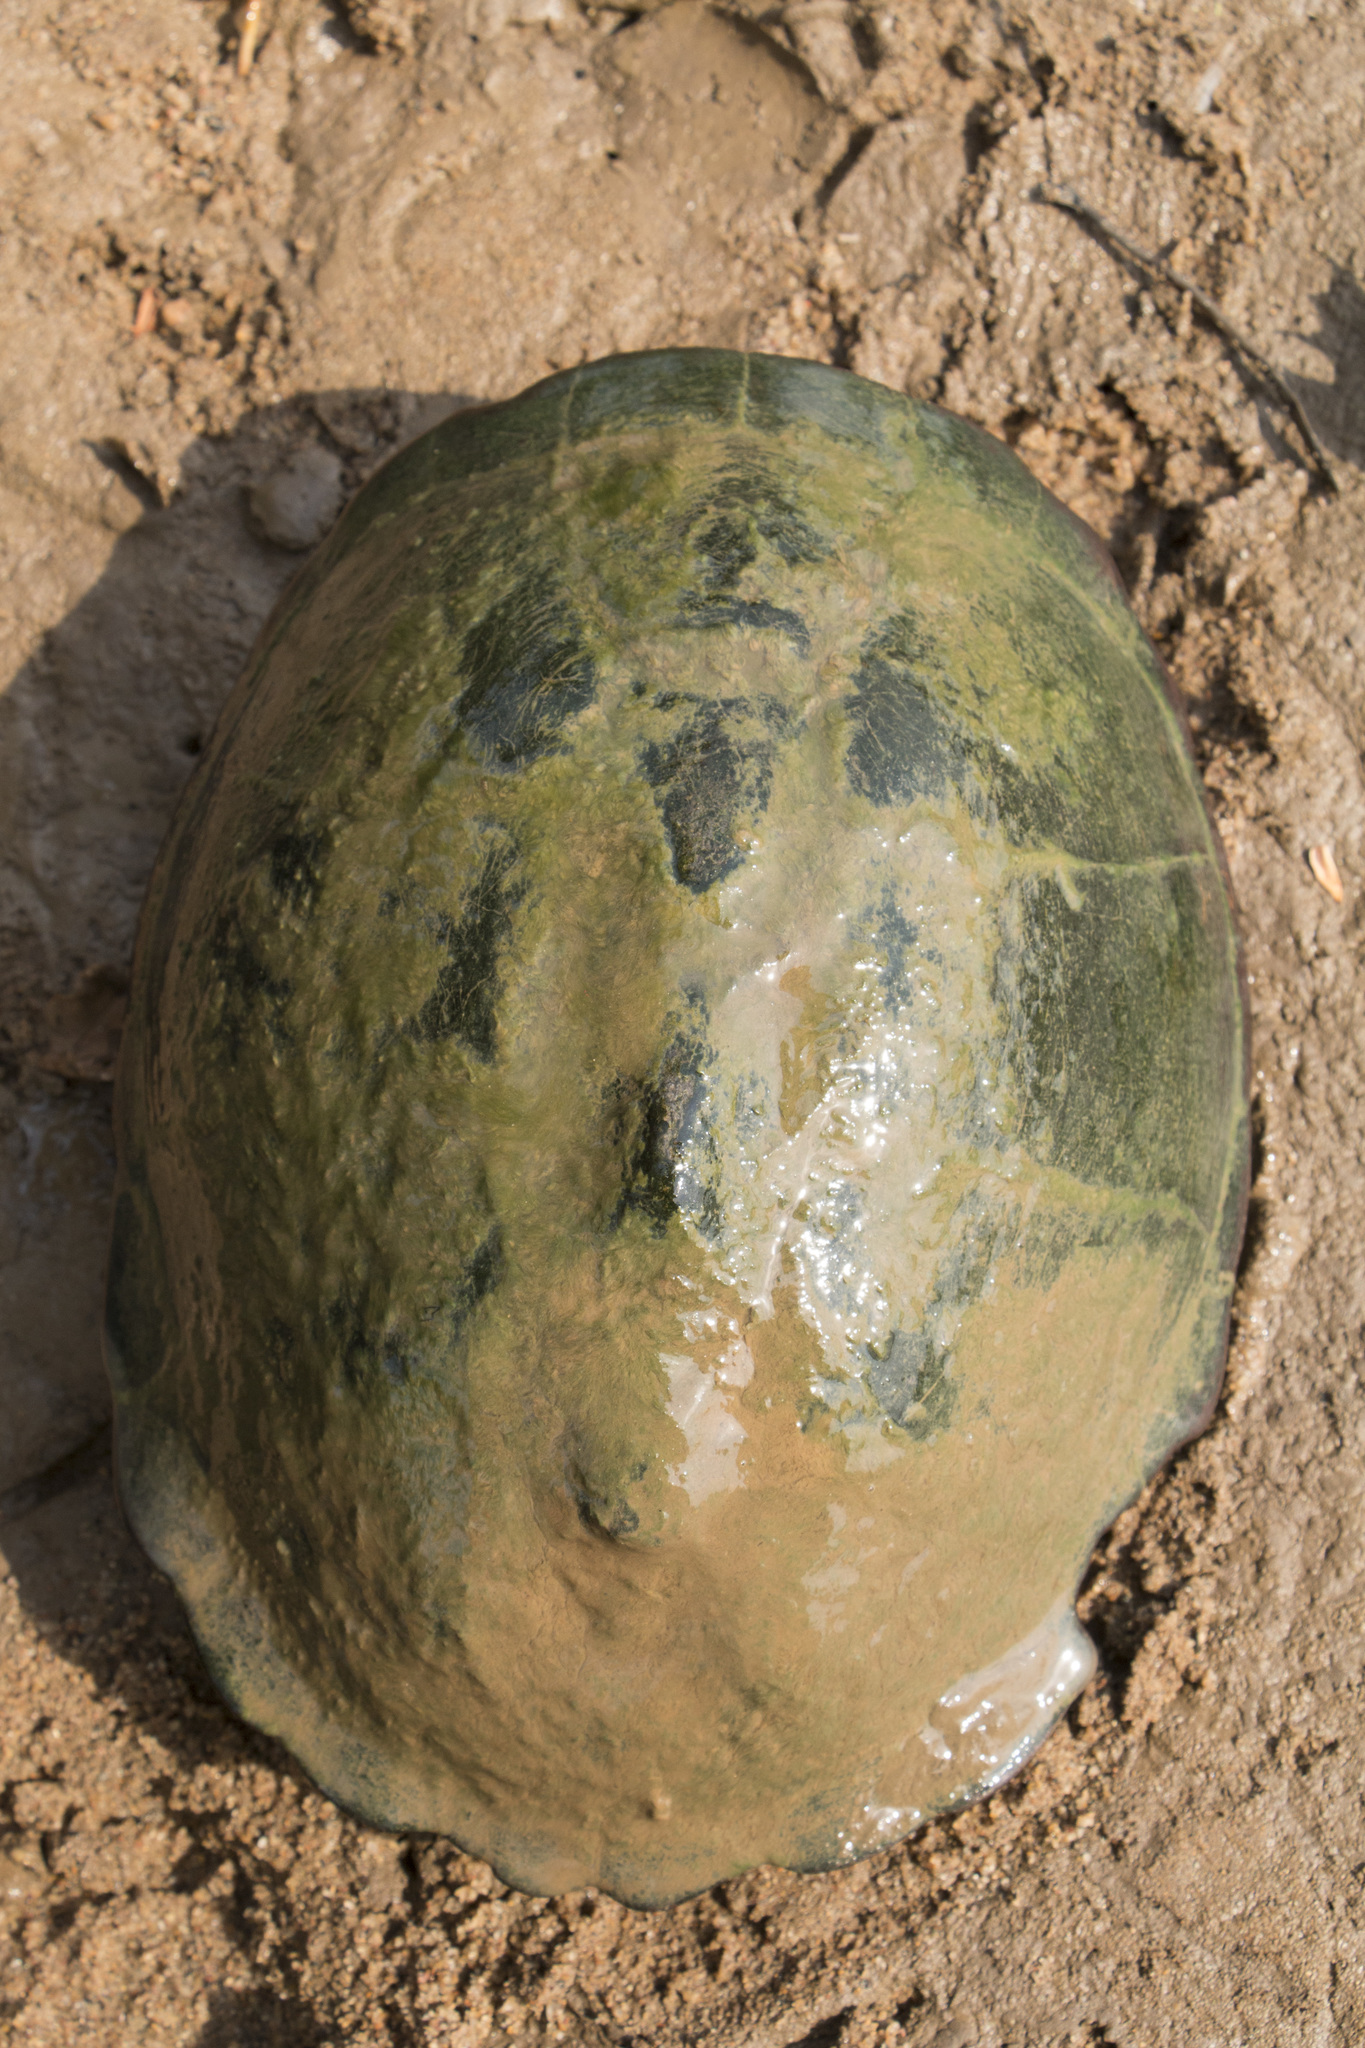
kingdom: Animalia
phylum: Chordata
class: Testudines
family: Pelomedusidae
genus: Pelusios
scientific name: Pelusios sinuatus
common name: Serrated hinged terrapin
